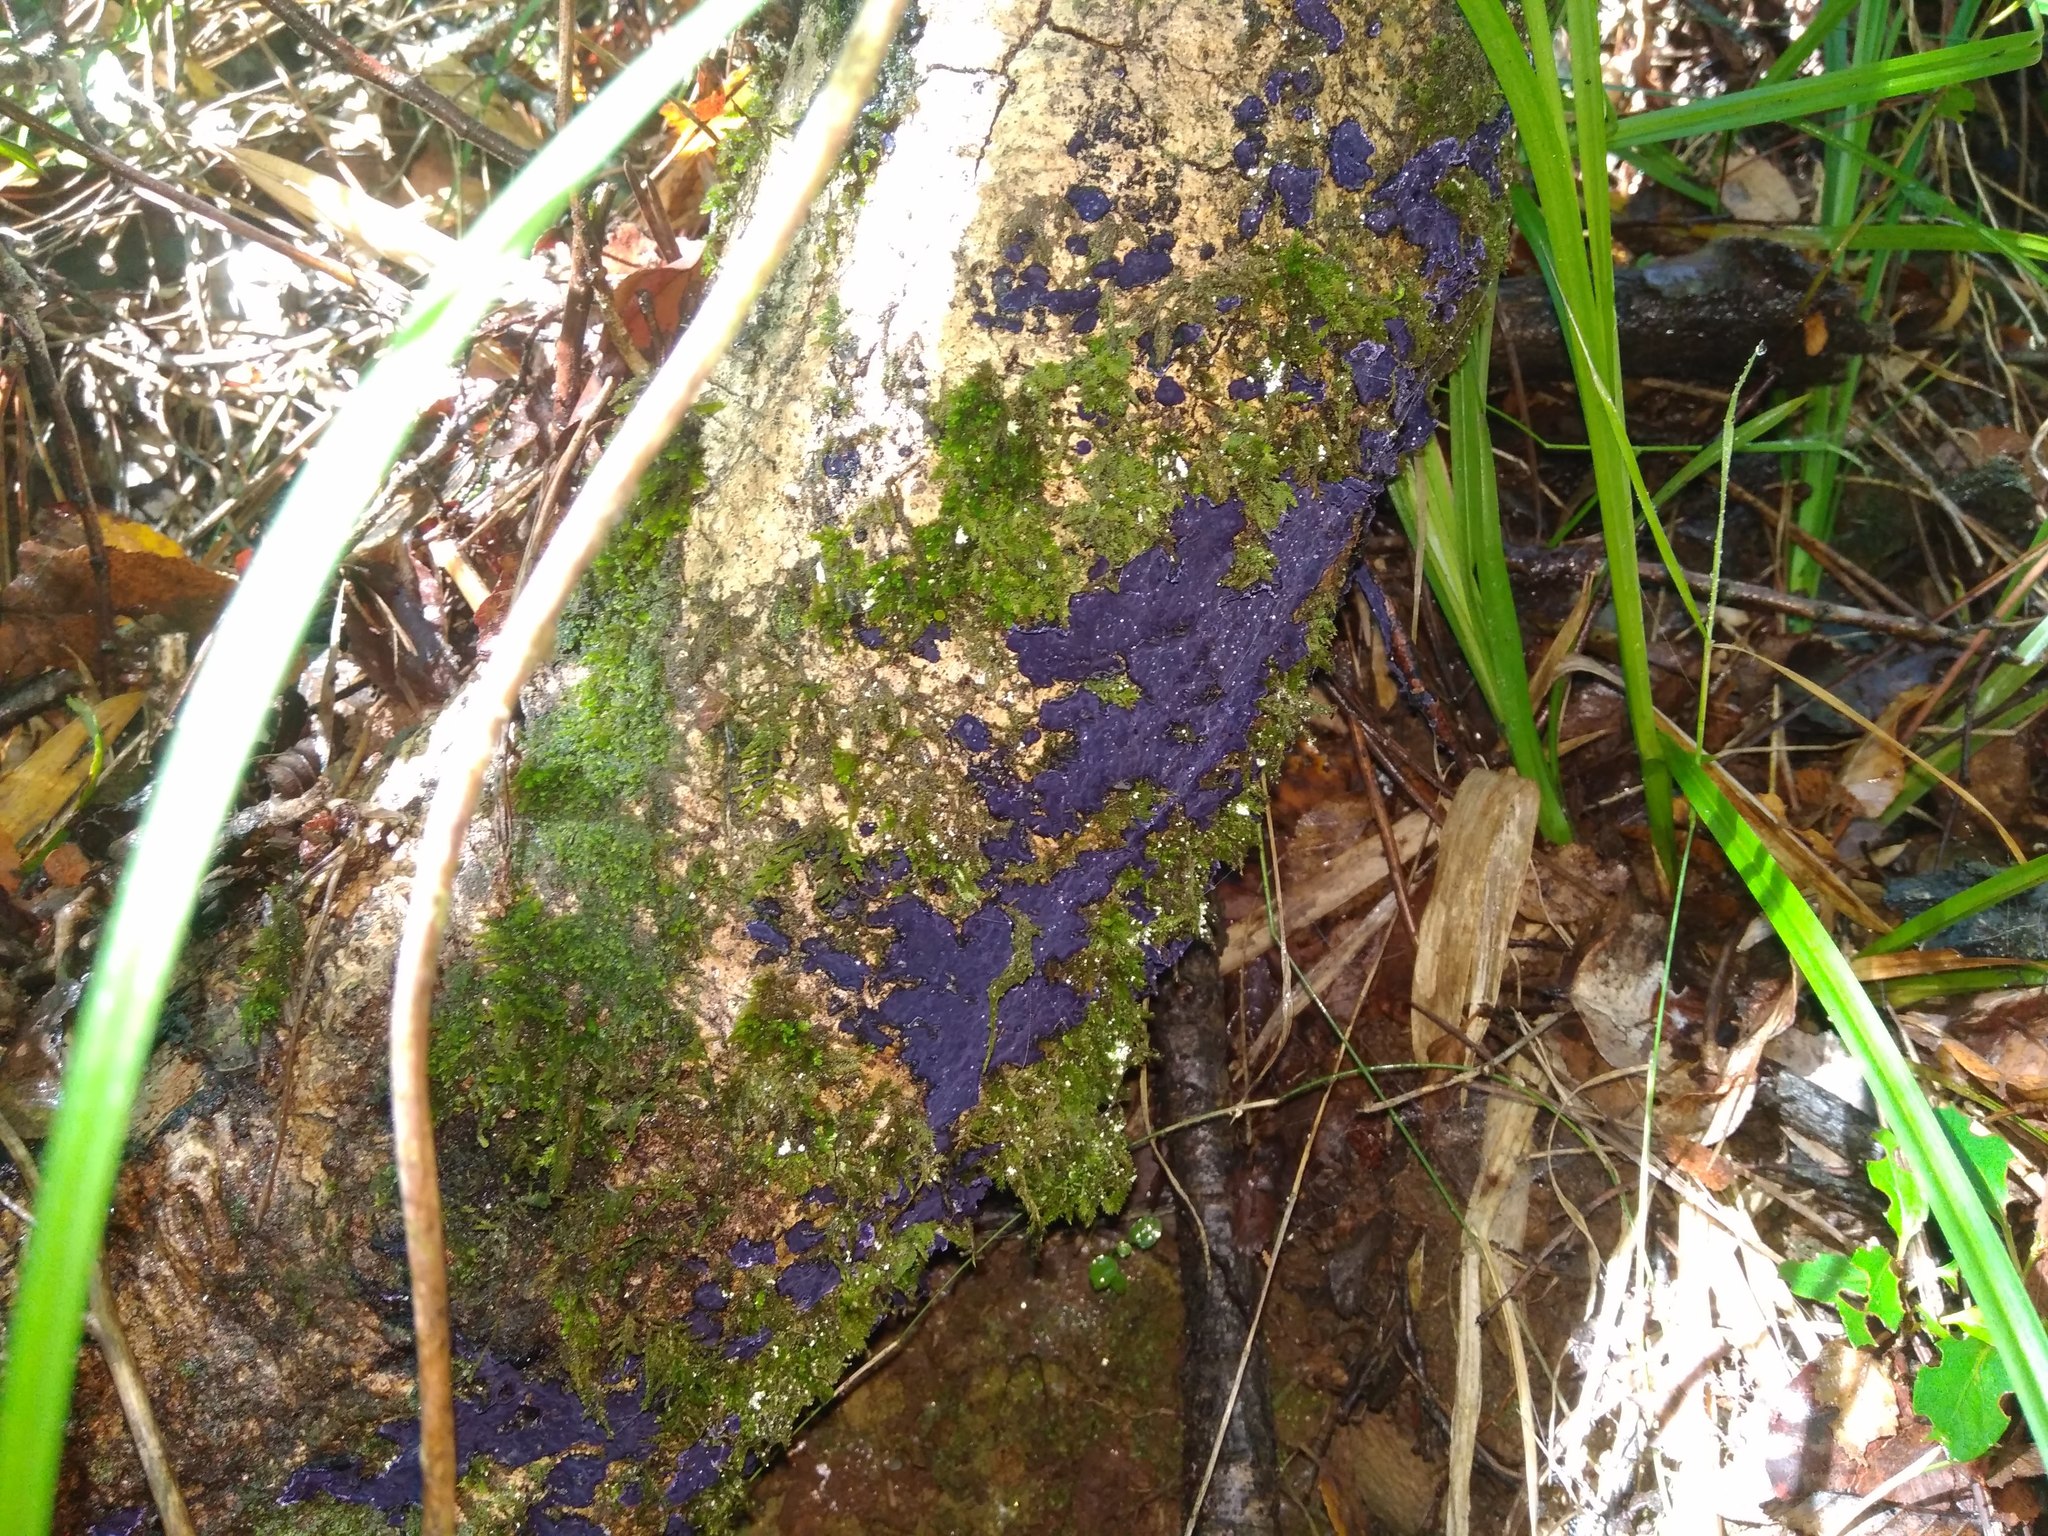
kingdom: Fungi
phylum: Basidiomycota
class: Agaricomycetes
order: Polyporales
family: Phanerochaetaceae
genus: Terana
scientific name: Terana coerulea
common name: Cobalt crust
